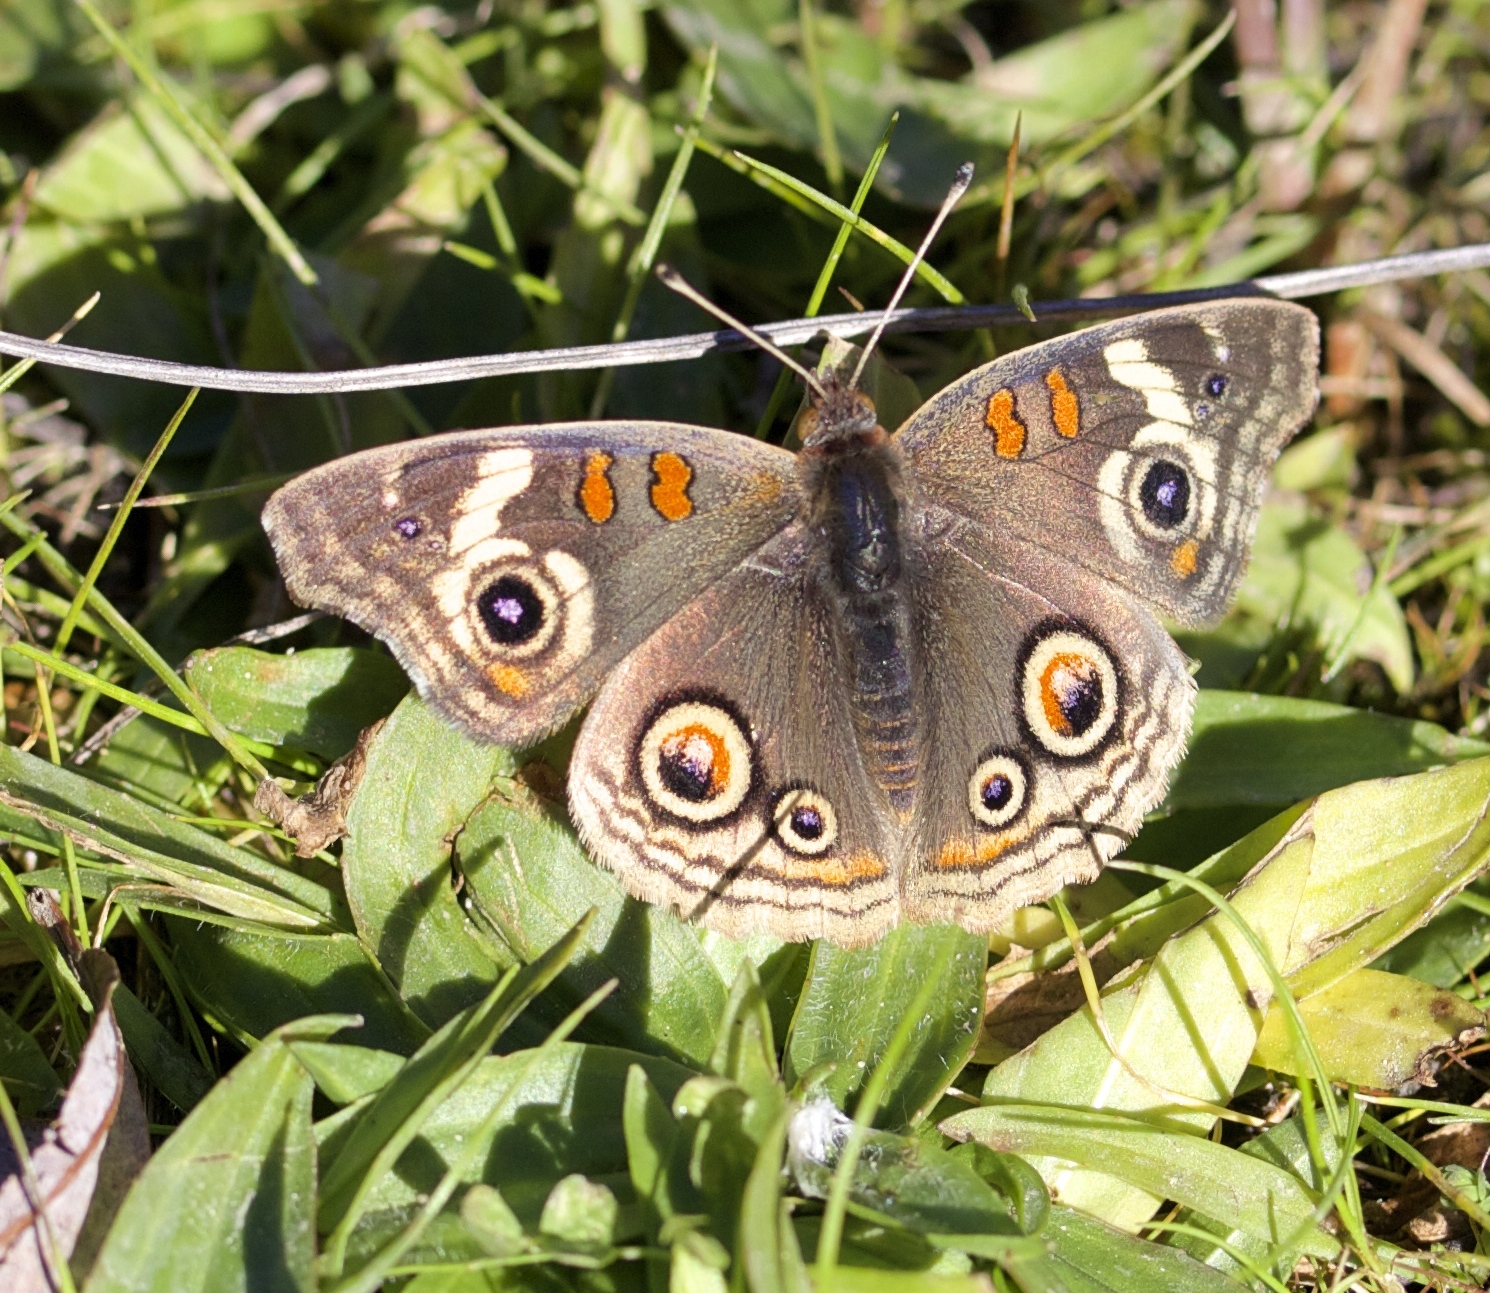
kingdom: Animalia
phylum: Arthropoda
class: Insecta
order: Lepidoptera
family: Nymphalidae
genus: Junonia
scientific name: Junonia grisea
